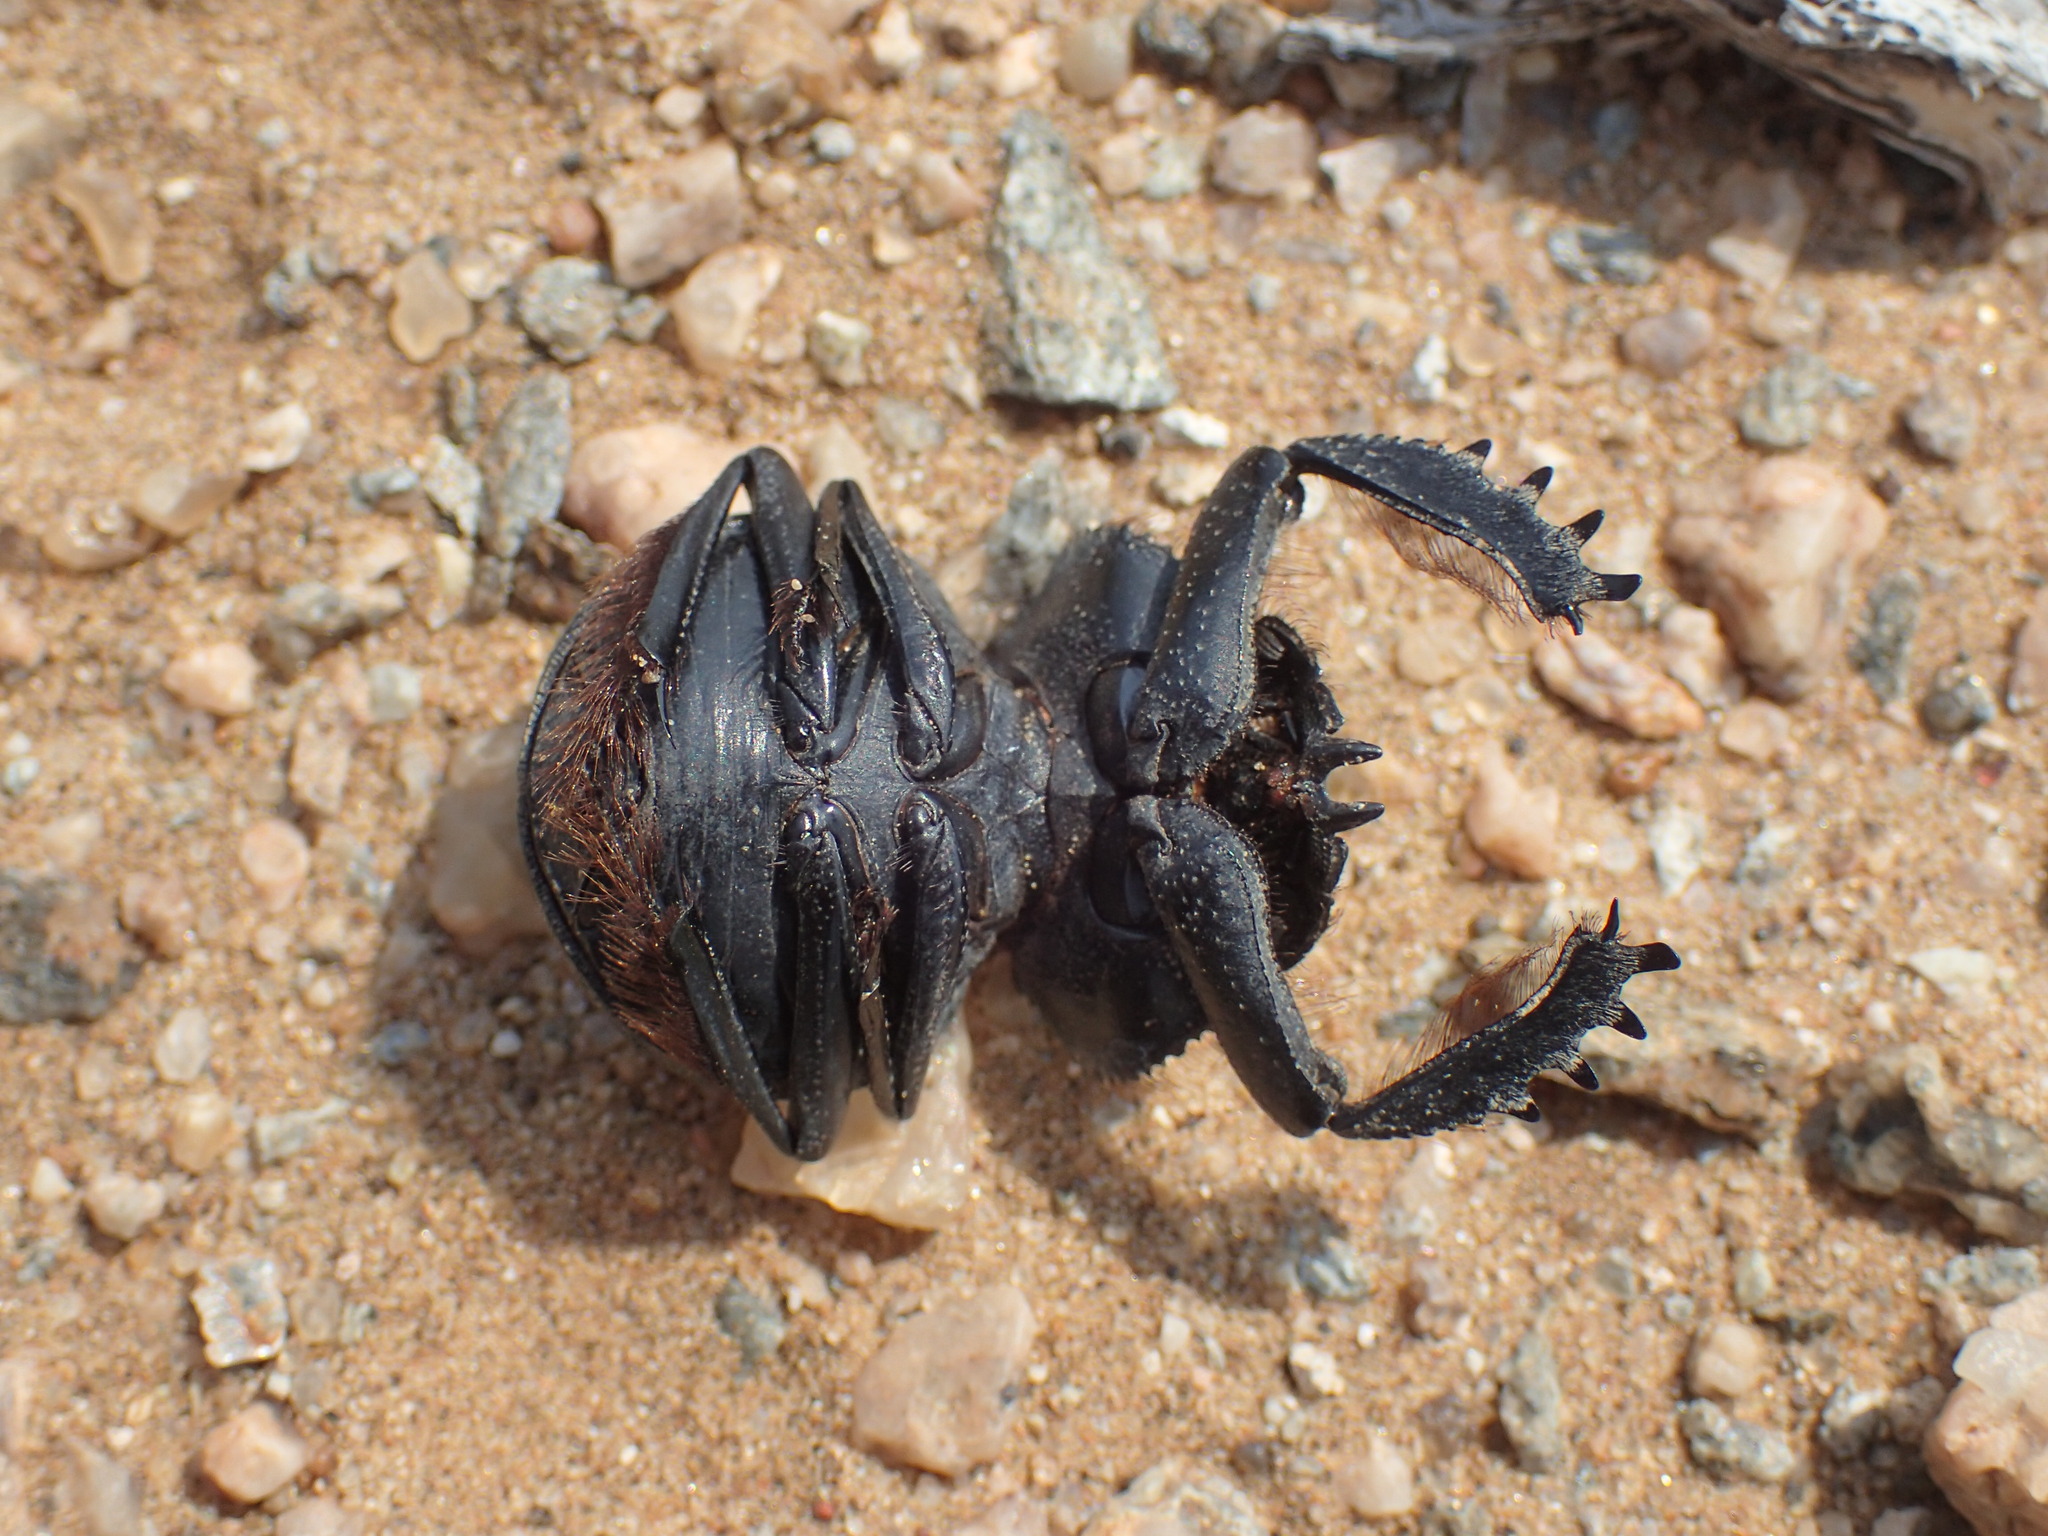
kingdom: Animalia
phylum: Arthropoda
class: Insecta
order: Coleoptera
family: Scarabaeidae
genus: Pachysoma
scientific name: Pachysoma gariepinum
